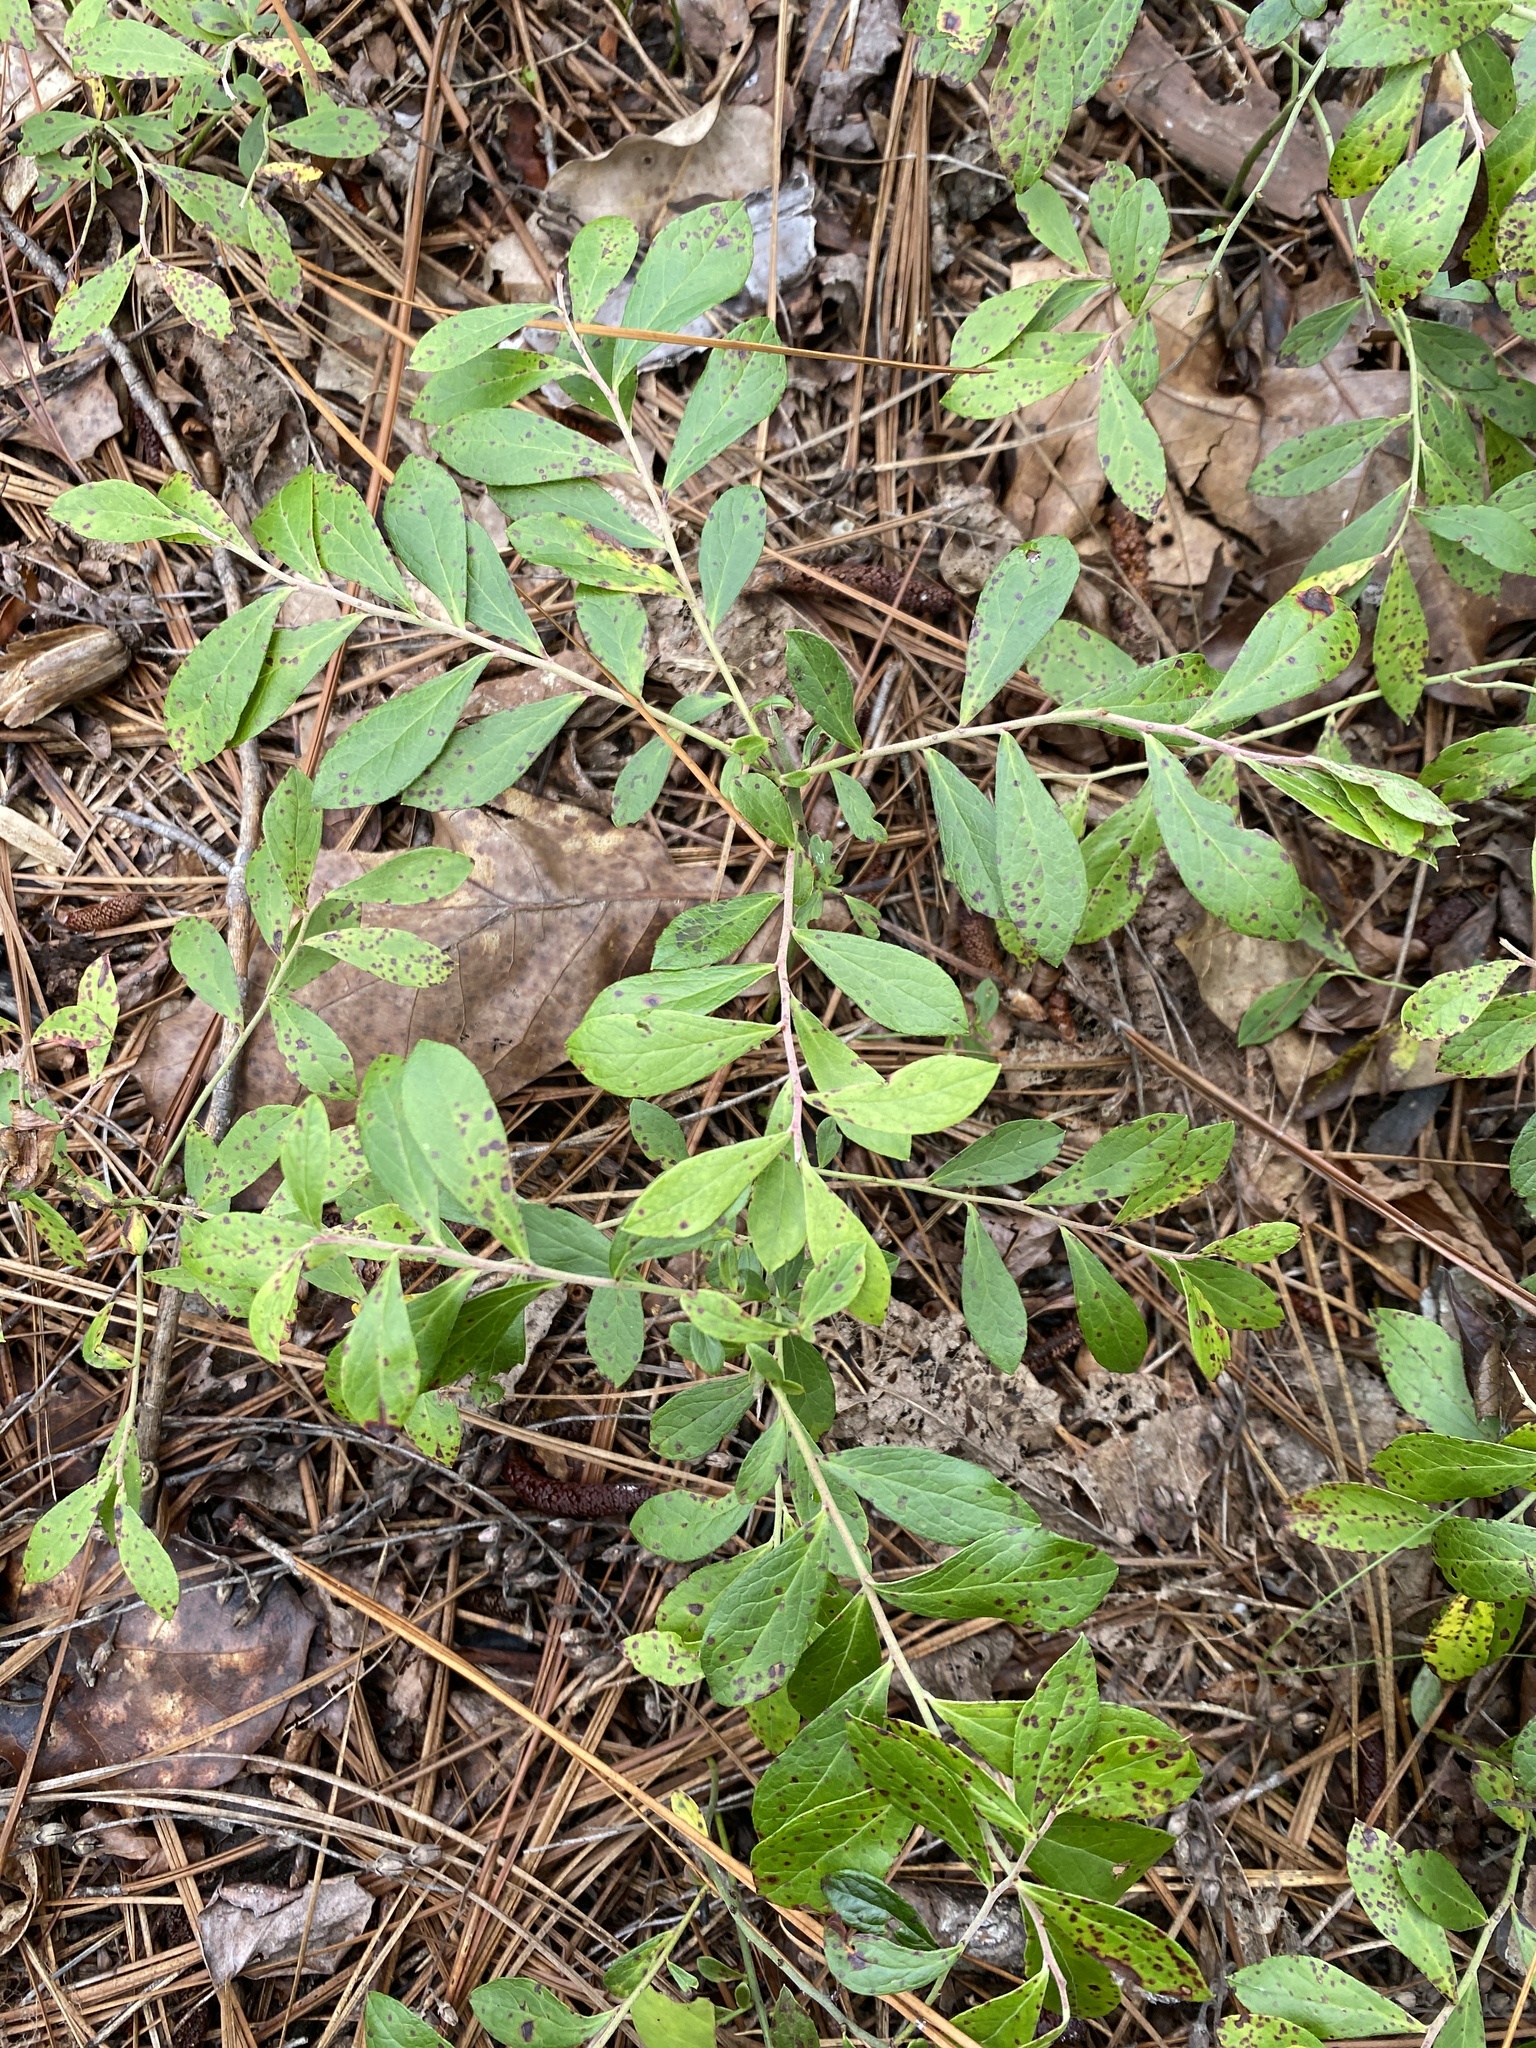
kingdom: Plantae
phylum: Tracheophyta
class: Magnoliopsida
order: Ericales
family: Ericaceae
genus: Vaccinium
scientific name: Vaccinium tenellum
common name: Southern blueberry
